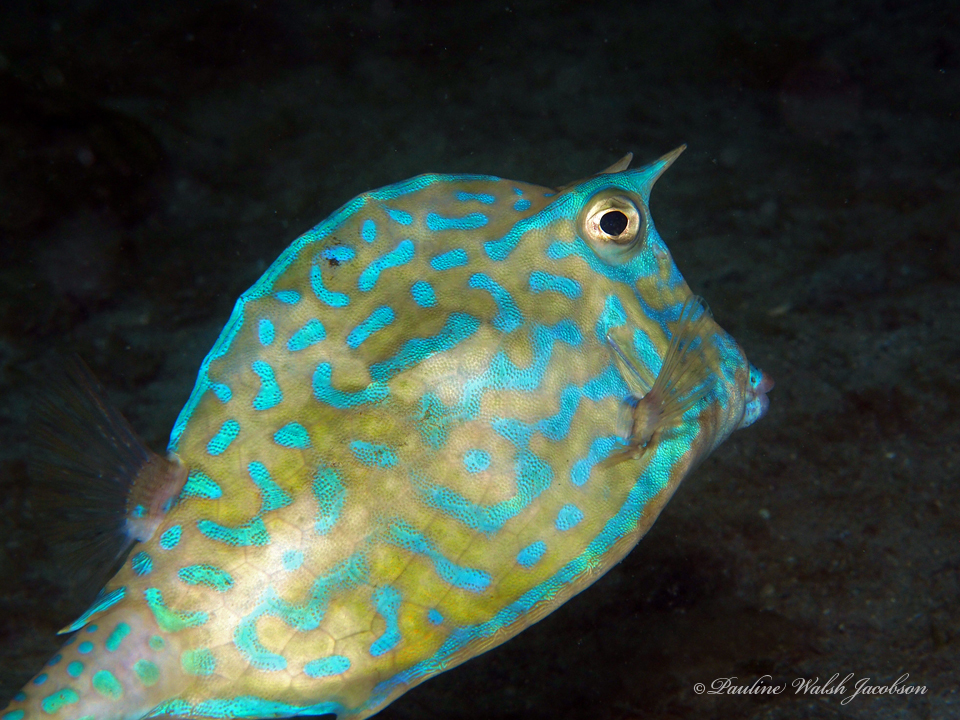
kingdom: Animalia
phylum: Chordata
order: Tetraodontiformes
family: Ostraciidae
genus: Acanthostracion
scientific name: Acanthostracion quadricornis
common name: Scrawled cowfish
